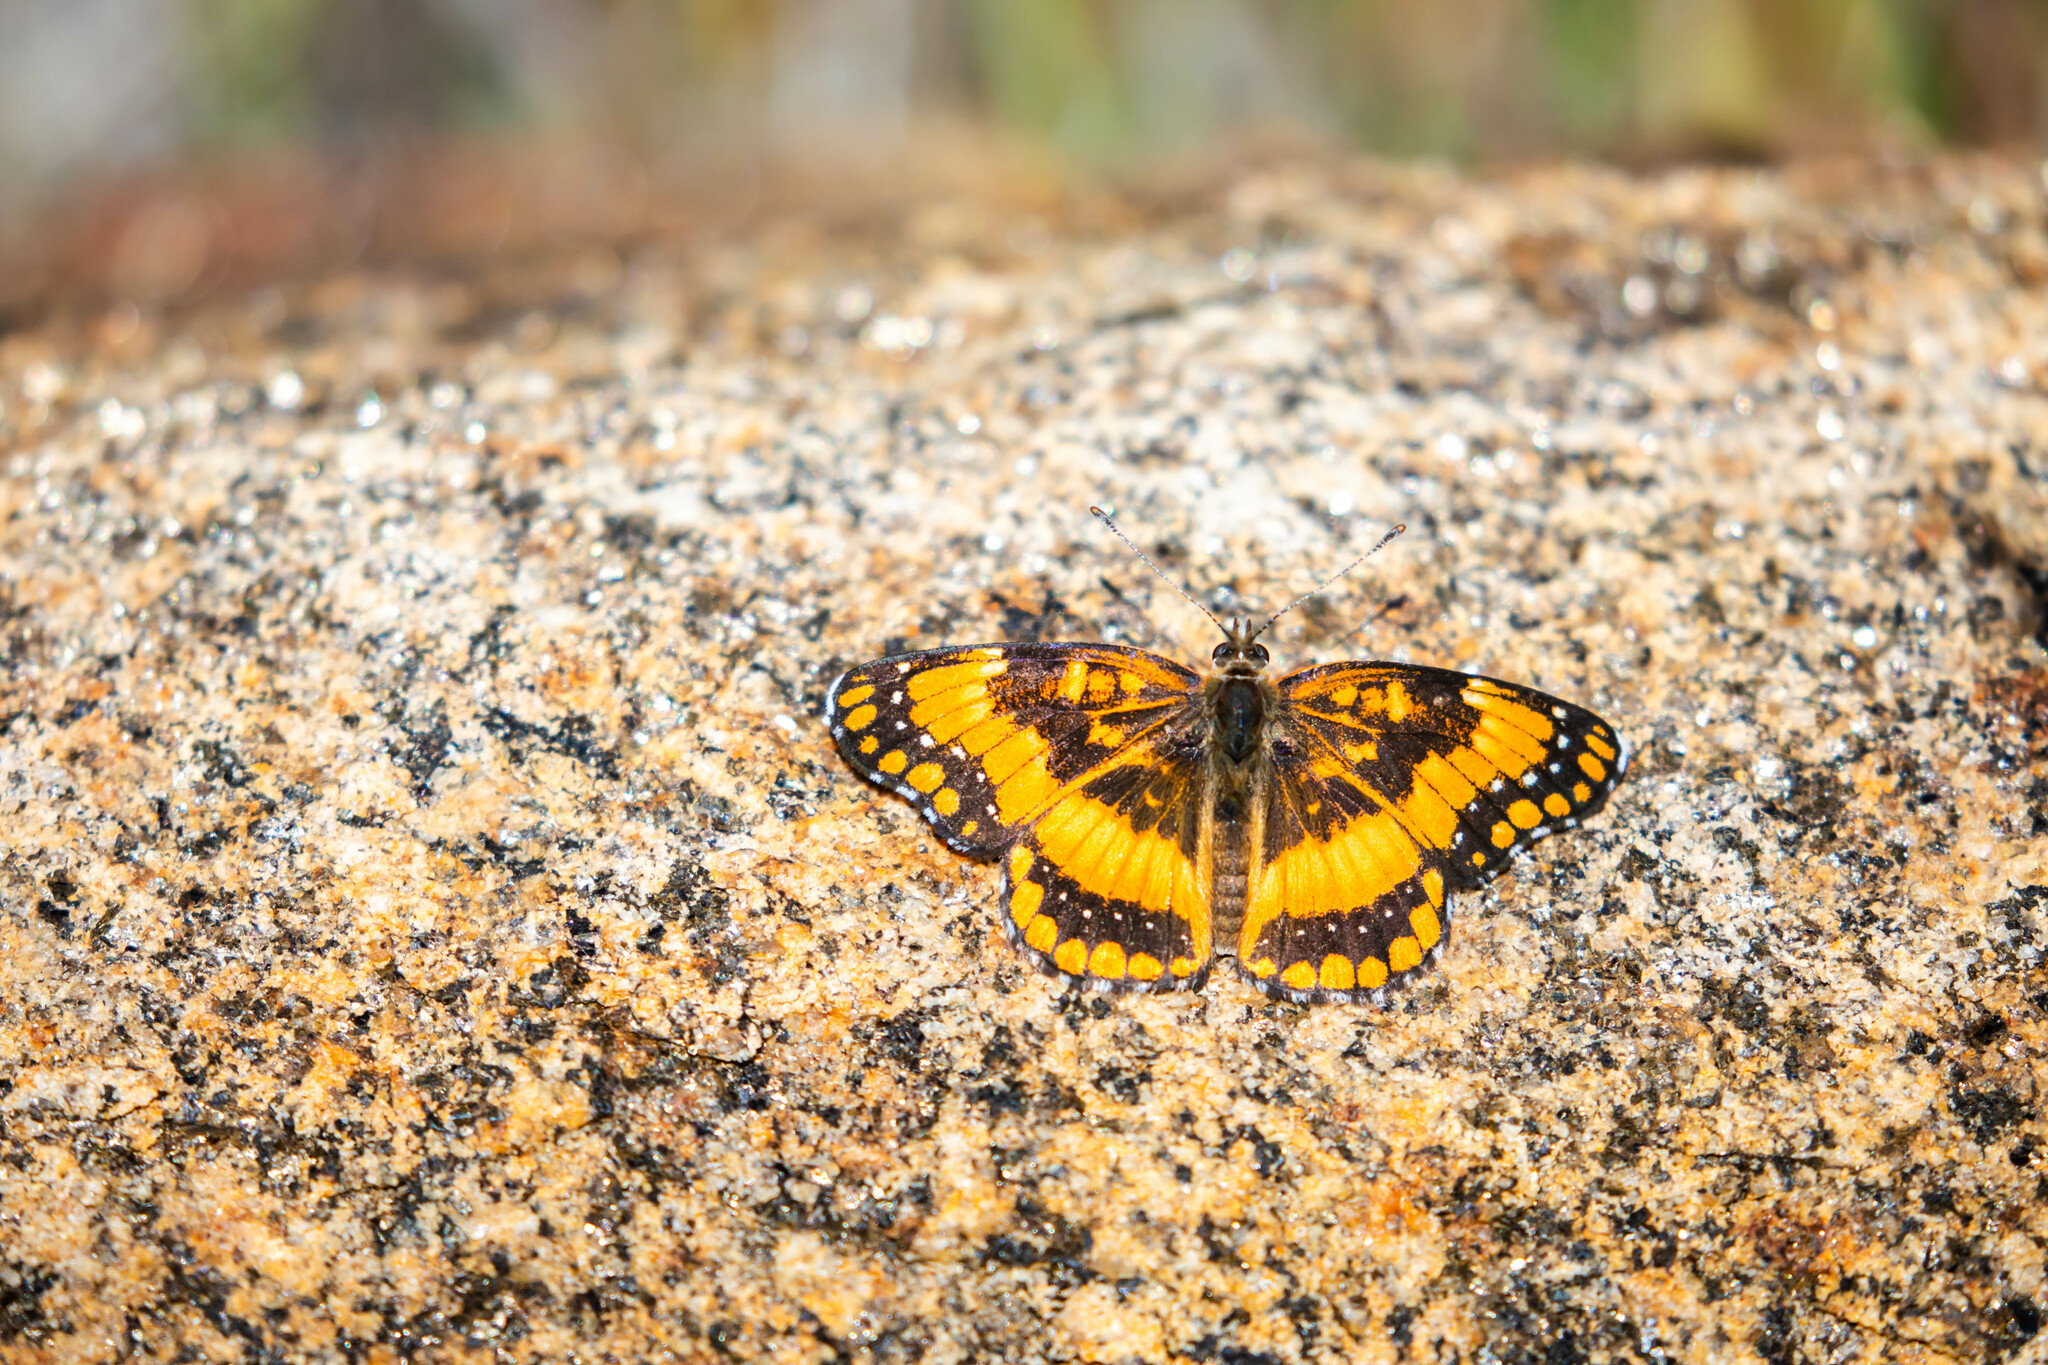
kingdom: Animalia
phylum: Arthropoda
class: Insecta
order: Lepidoptera
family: Nymphalidae
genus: Chlosyne
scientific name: Chlosyne californica
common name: California patch
